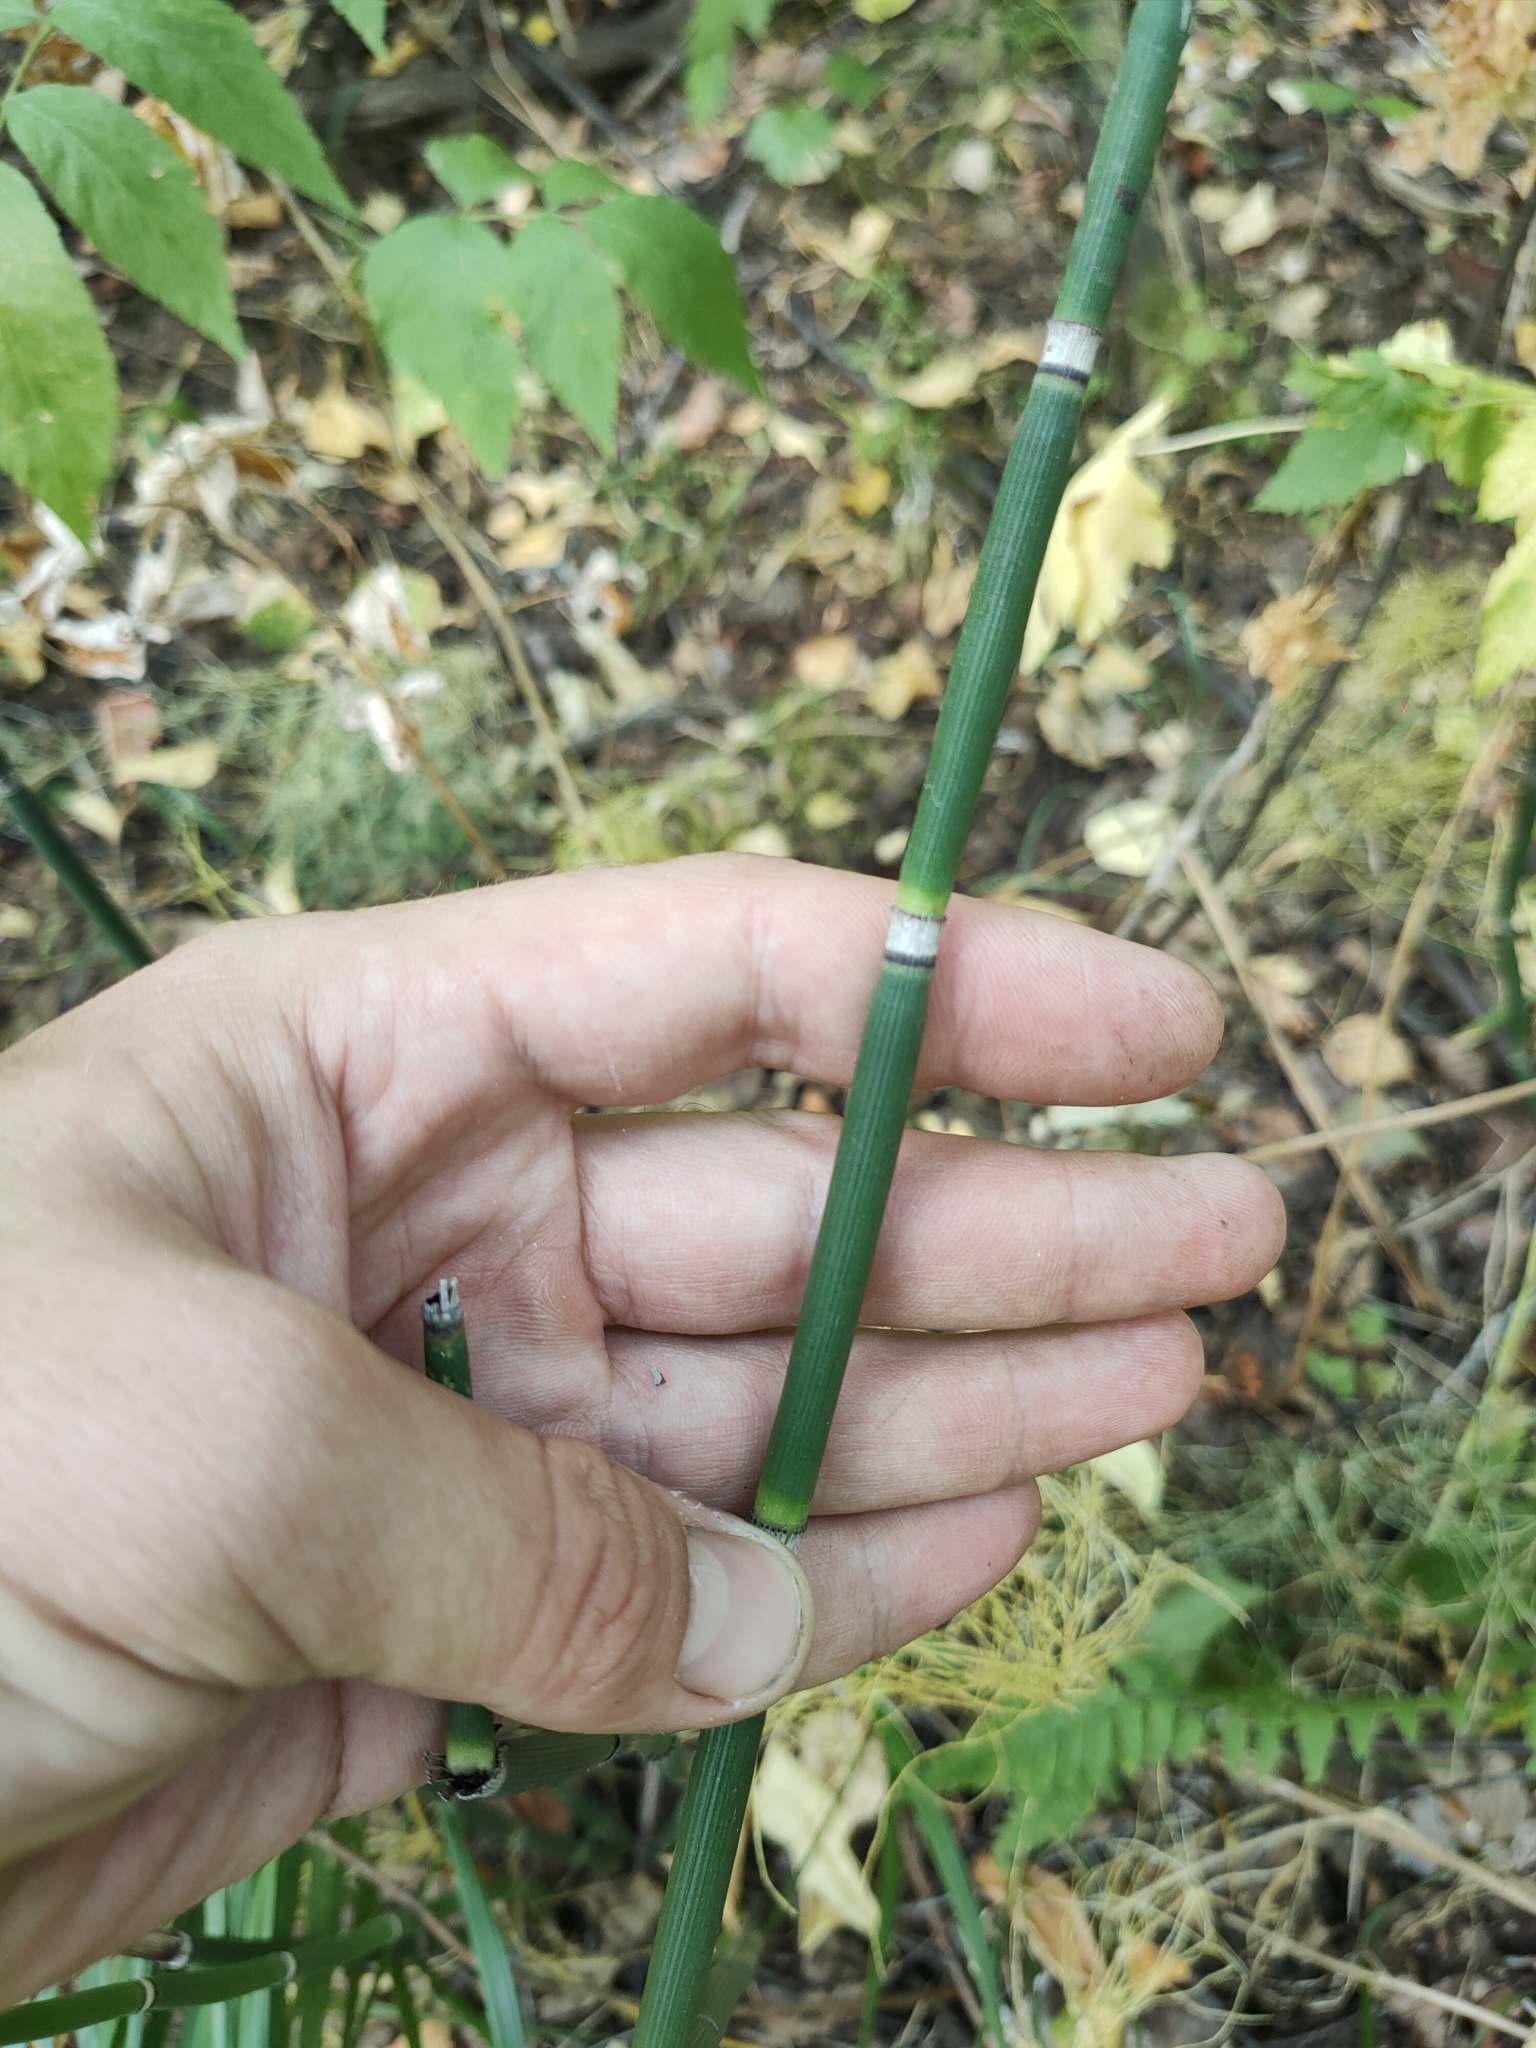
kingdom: Plantae
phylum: Tracheophyta
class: Polypodiopsida
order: Equisetales
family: Equisetaceae
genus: Equisetum
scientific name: Equisetum hyemale
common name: Rough horsetail
